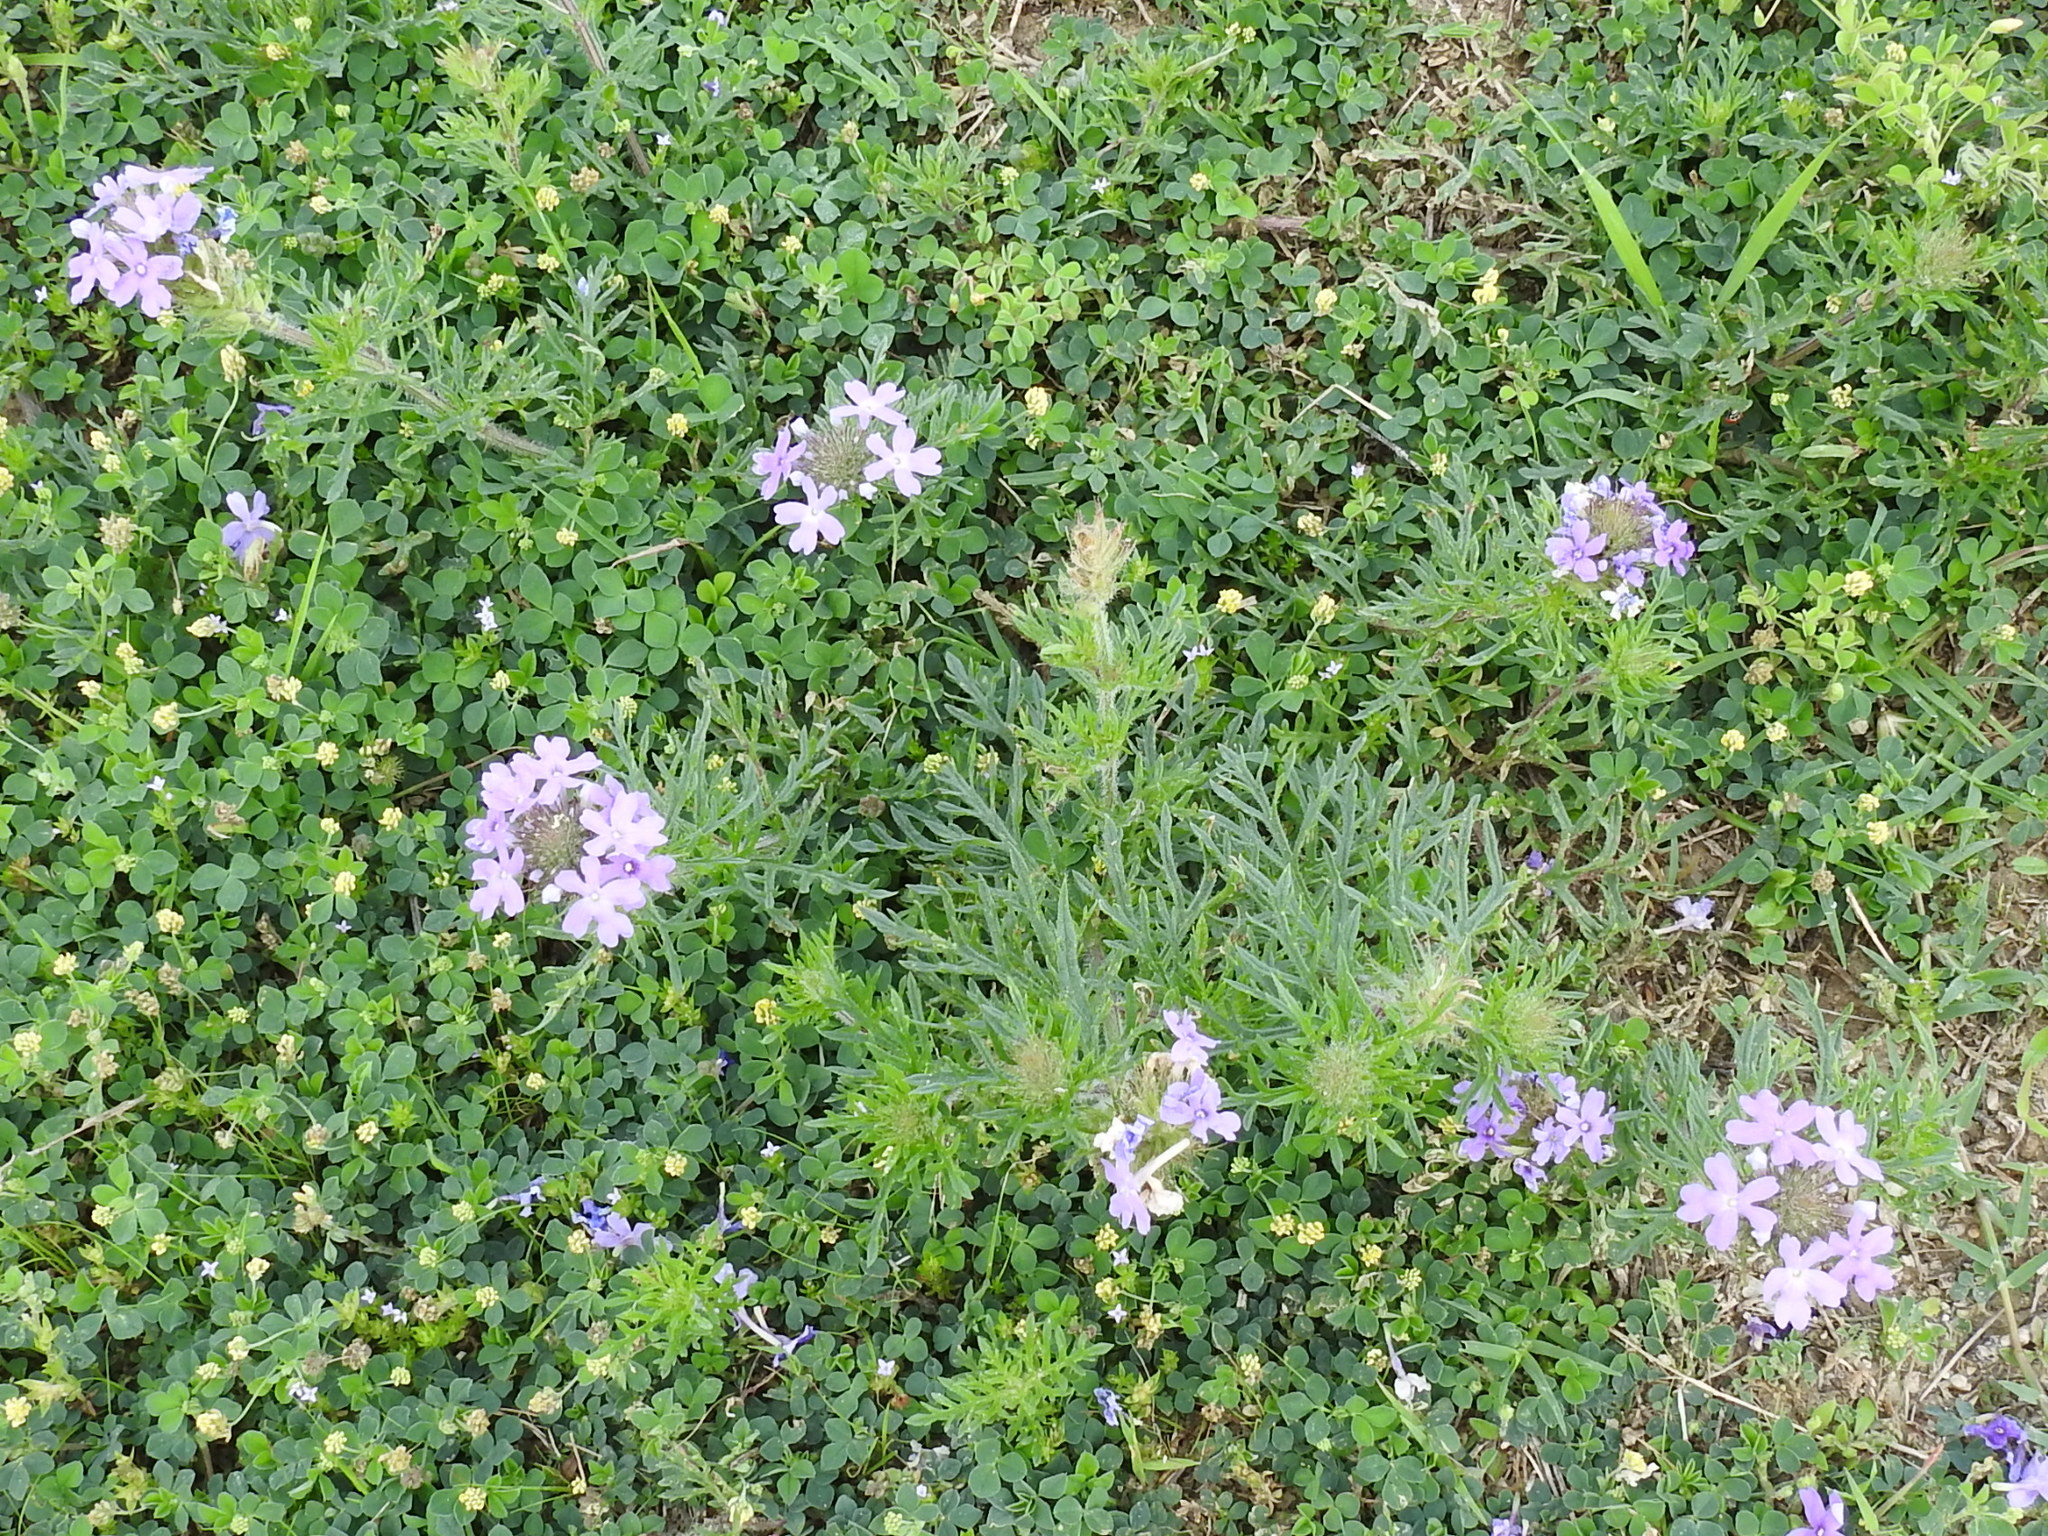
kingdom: Plantae
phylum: Tracheophyta
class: Magnoliopsida
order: Lamiales
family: Verbenaceae
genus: Verbena
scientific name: Verbena bipinnatifida
